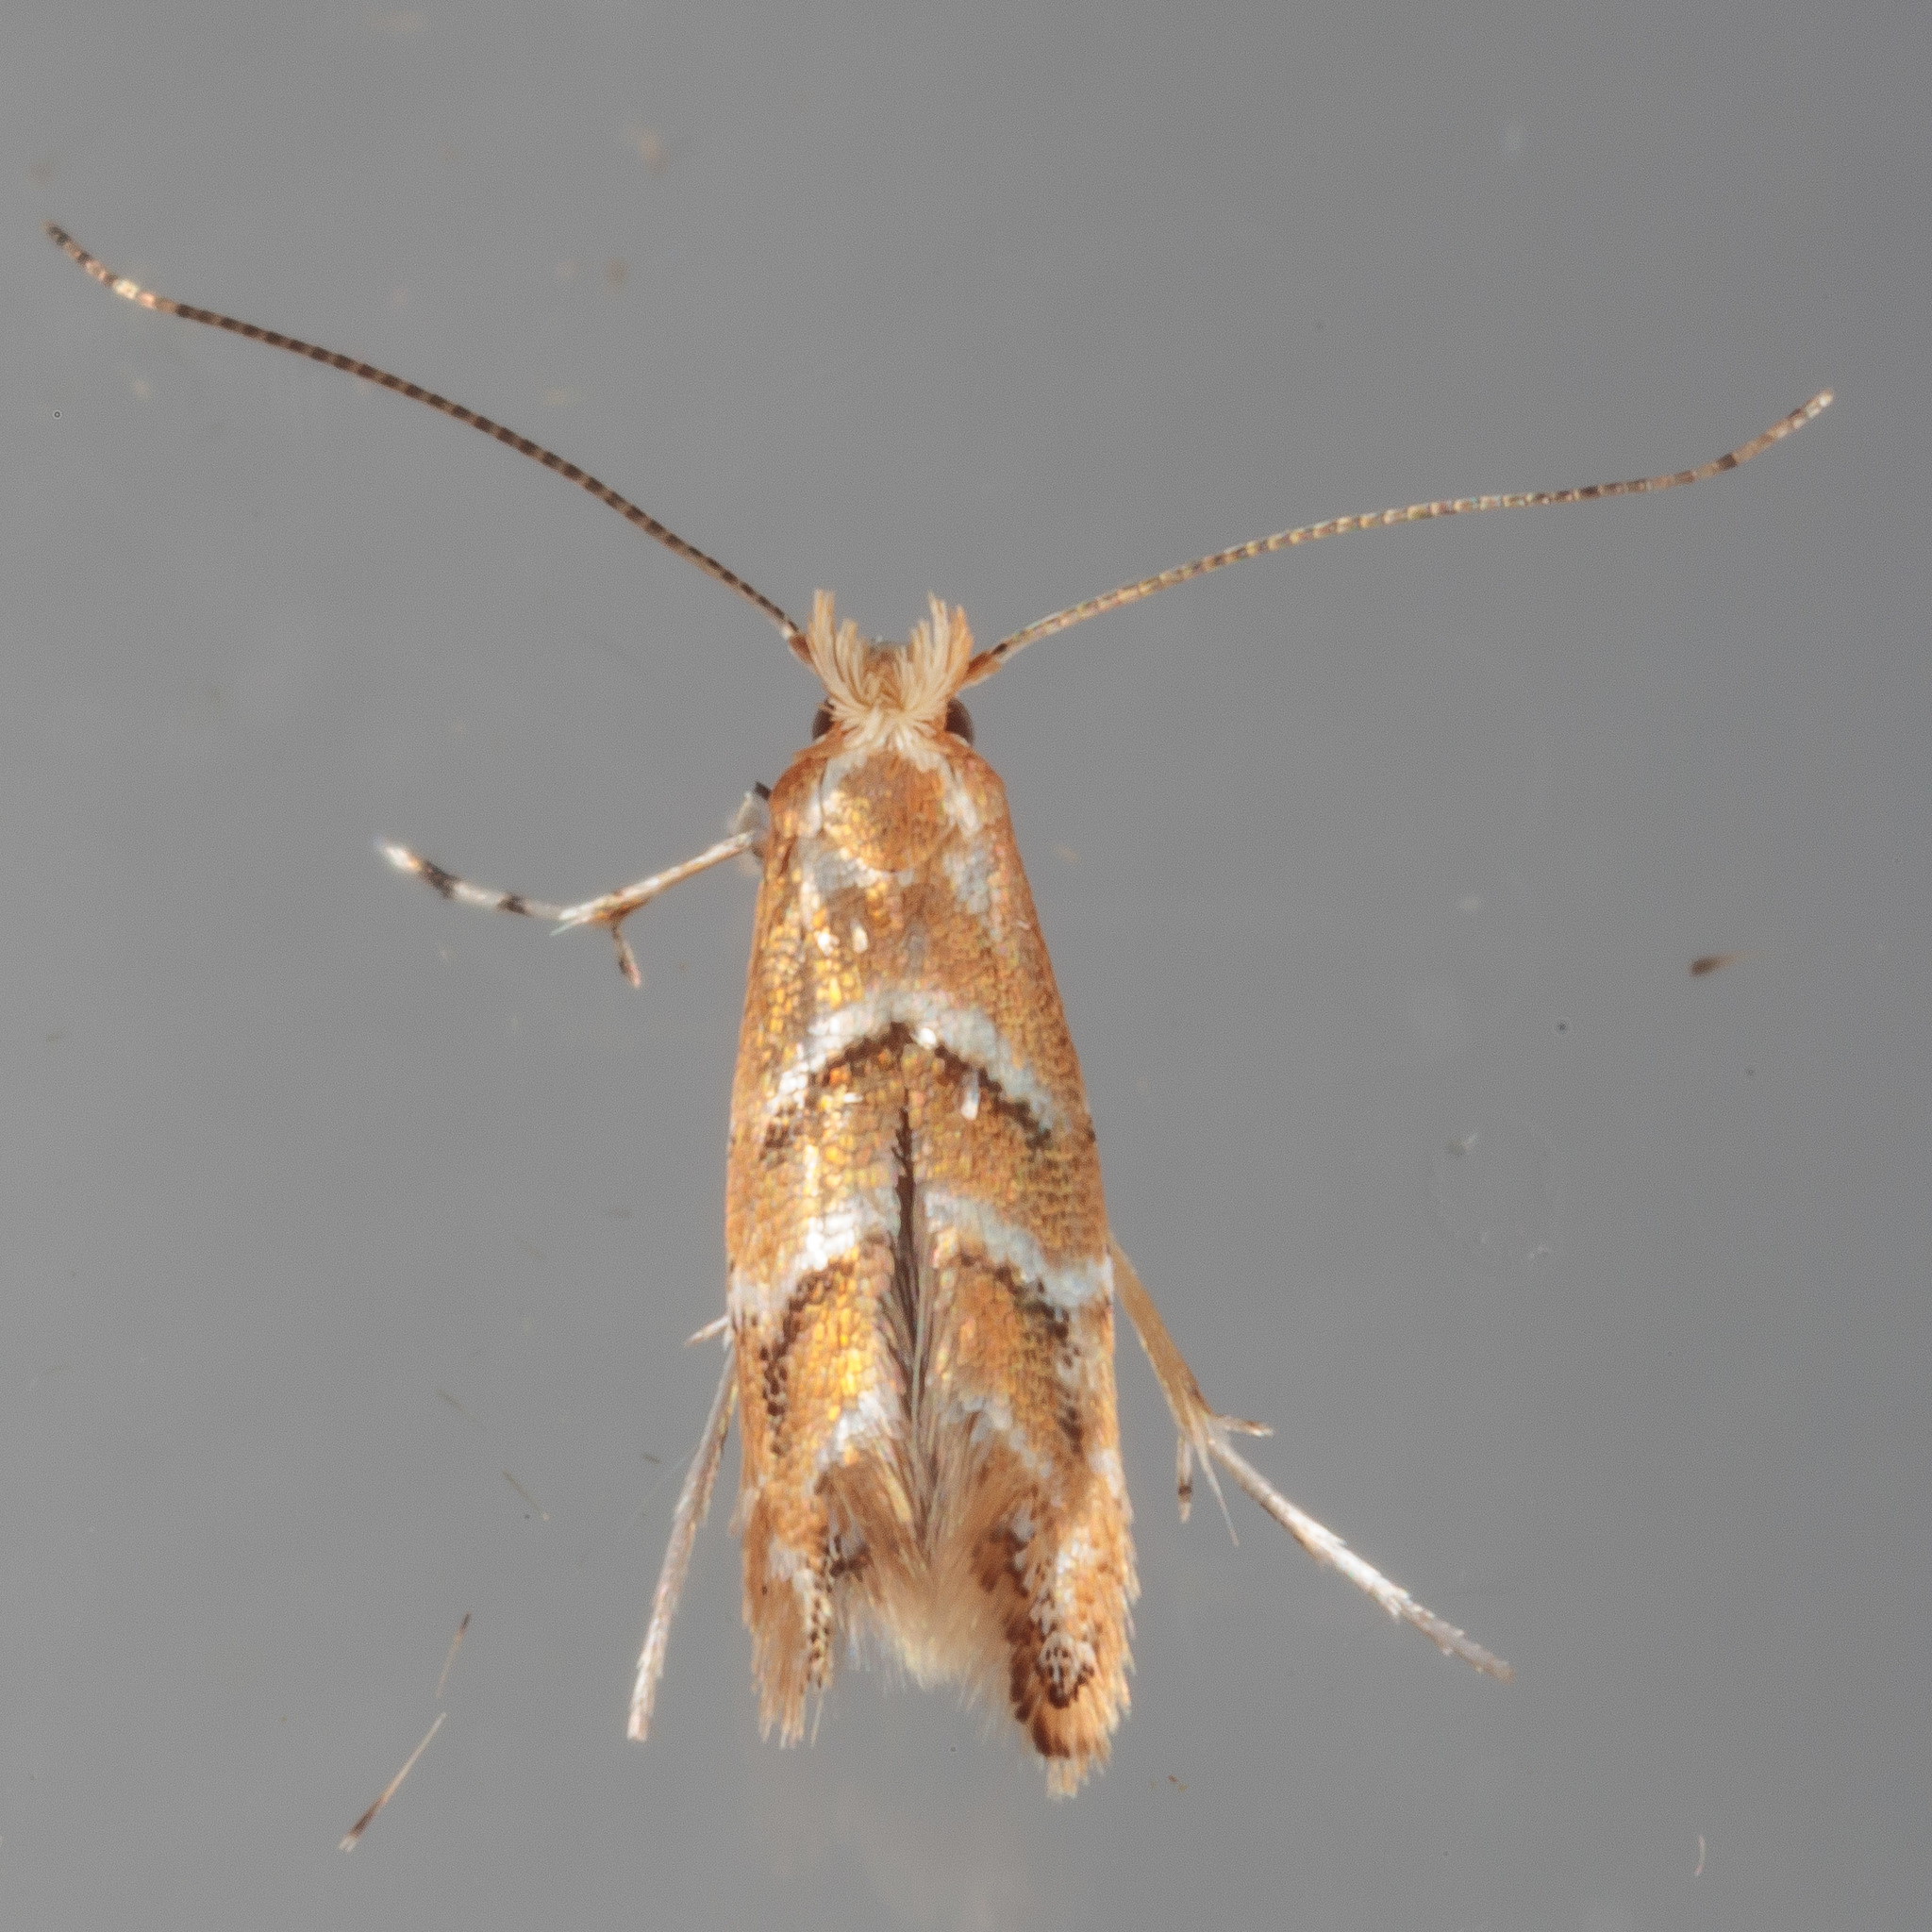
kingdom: Animalia
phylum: Arthropoda
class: Insecta
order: Lepidoptera
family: Gracillariidae
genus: Cameraria
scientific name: Cameraria caryaefoliella
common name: Pecan leafminer moth
